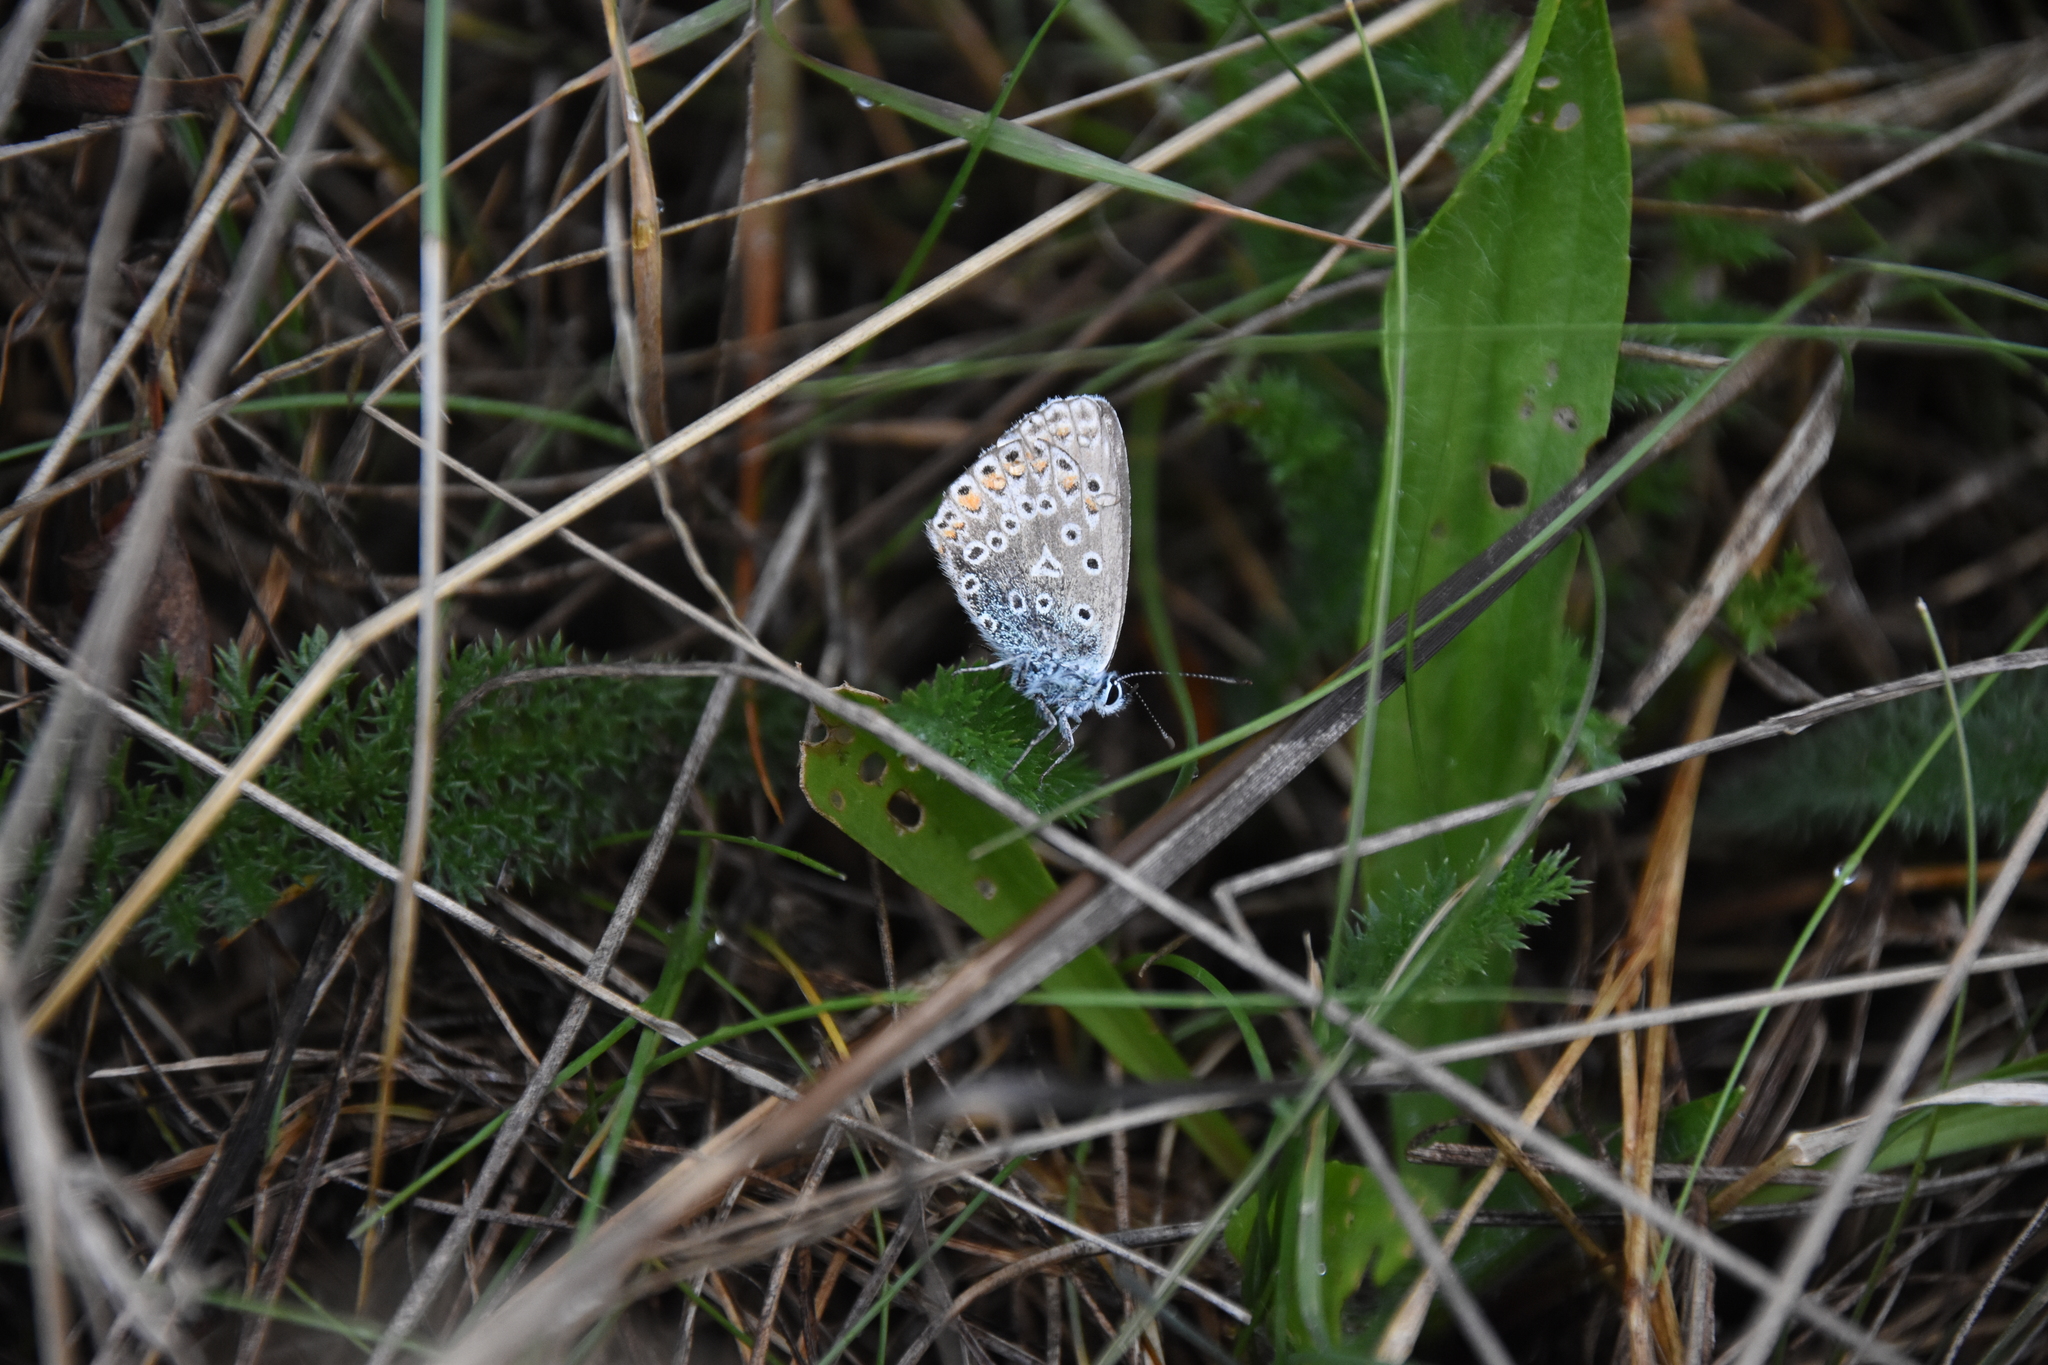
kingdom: Animalia
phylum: Arthropoda
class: Insecta
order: Lepidoptera
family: Lycaenidae
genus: Polyommatus
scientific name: Polyommatus icarus
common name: Common blue
